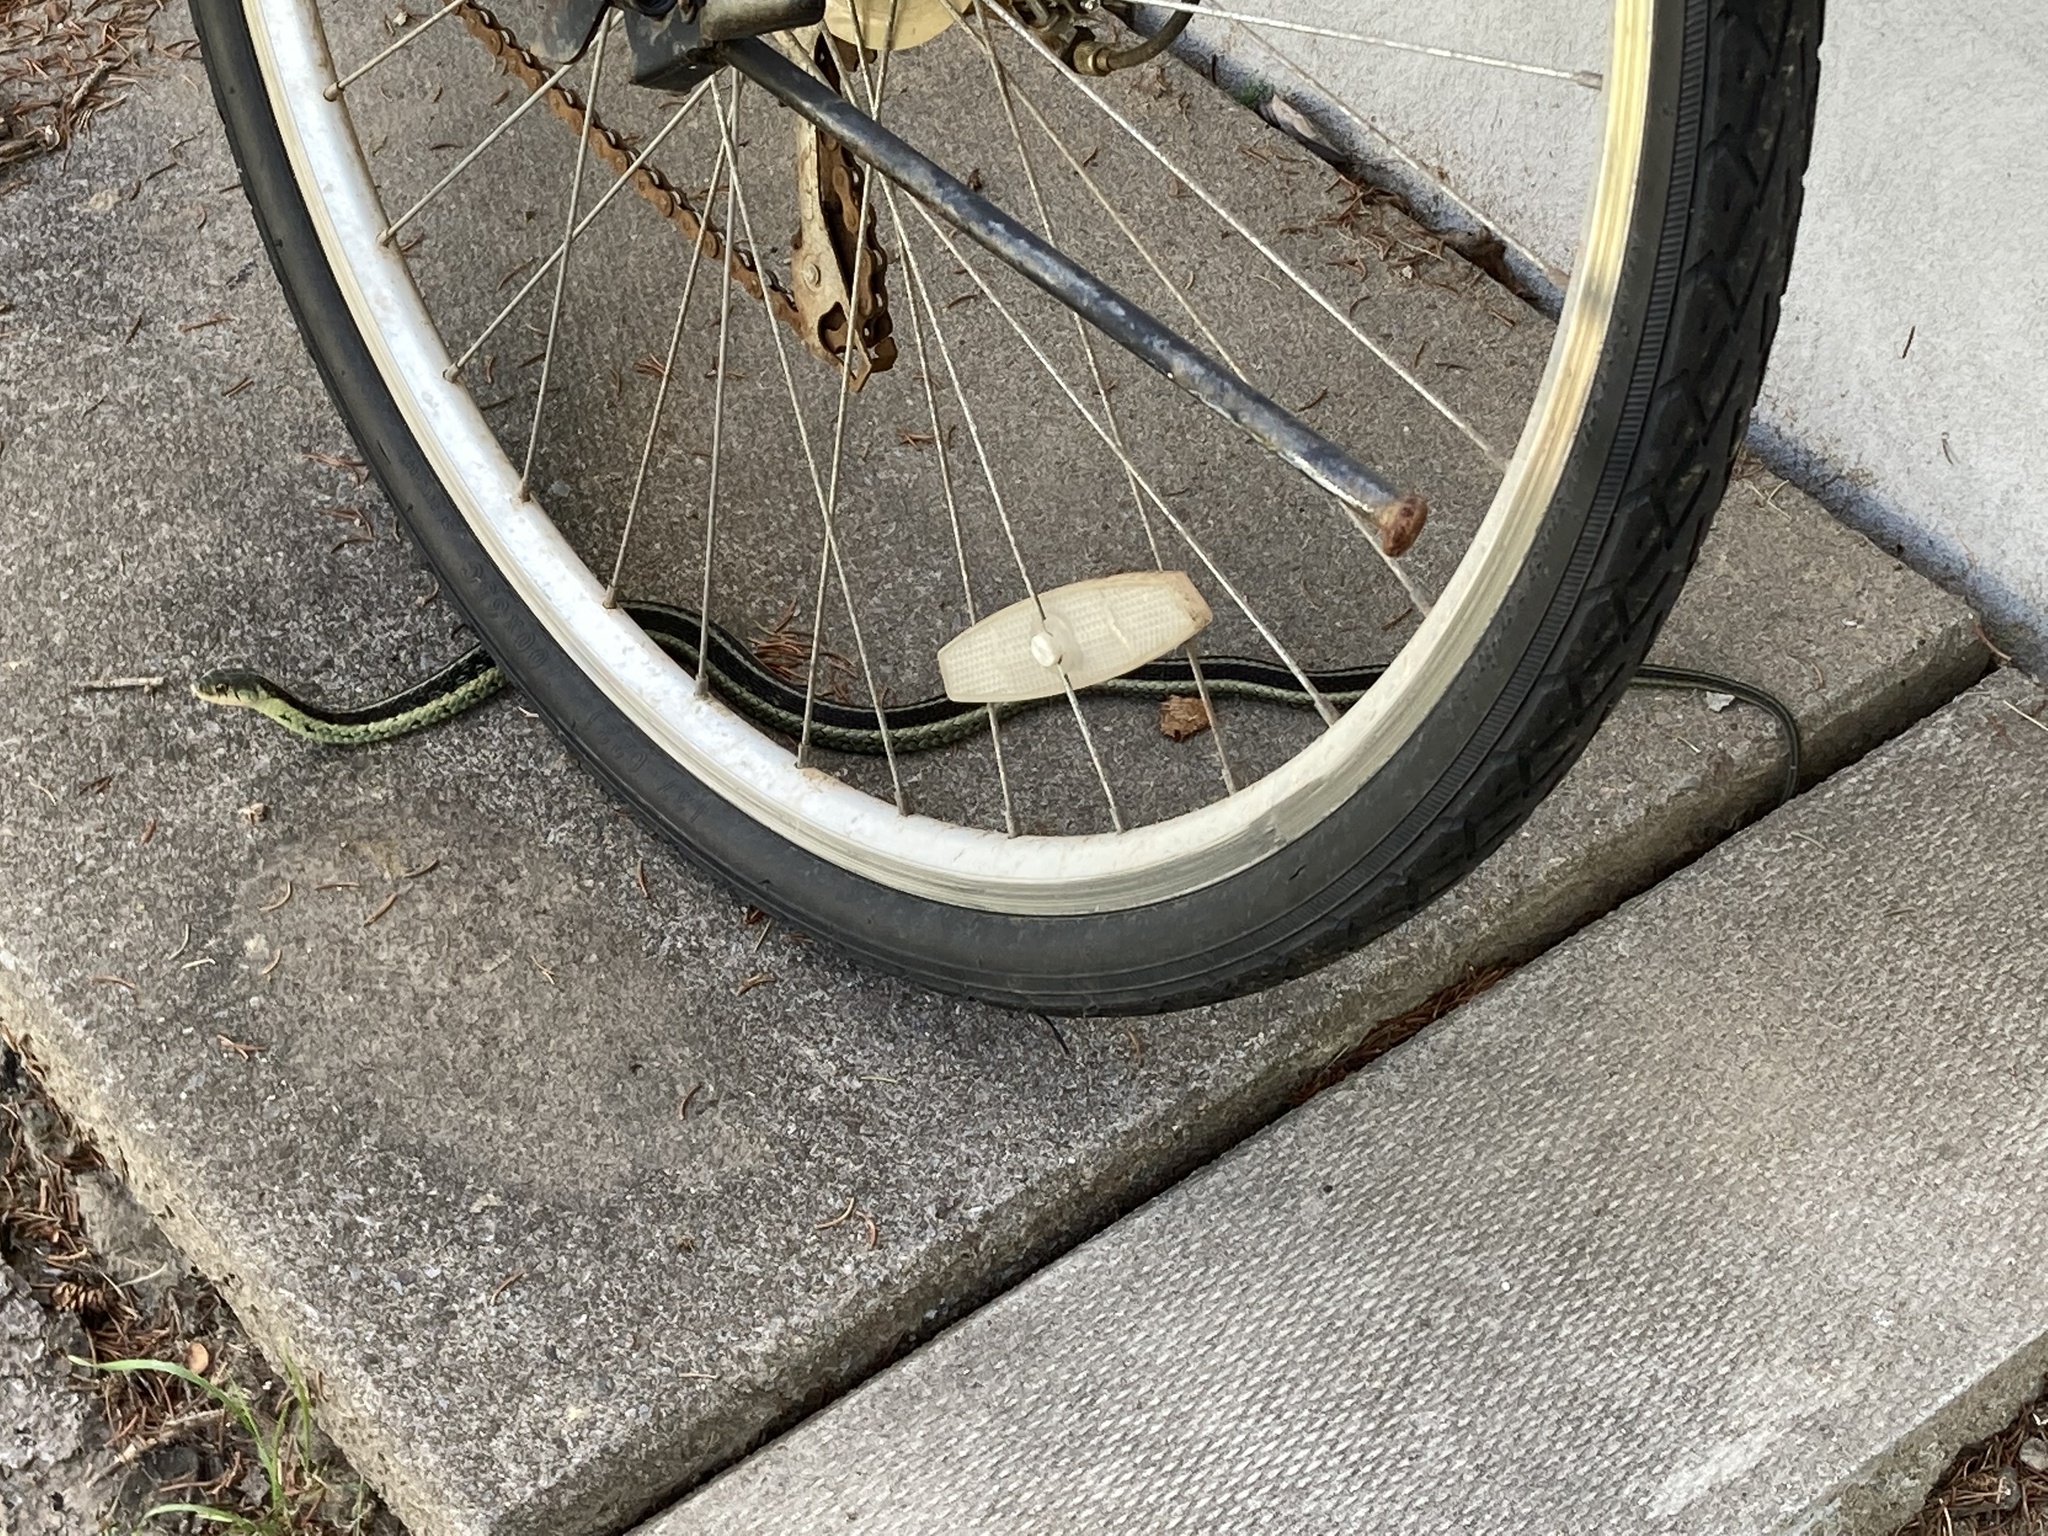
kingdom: Animalia
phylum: Chordata
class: Squamata
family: Colubridae
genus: Thamnophis
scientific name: Thamnophis sirtalis
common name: Common garter snake
